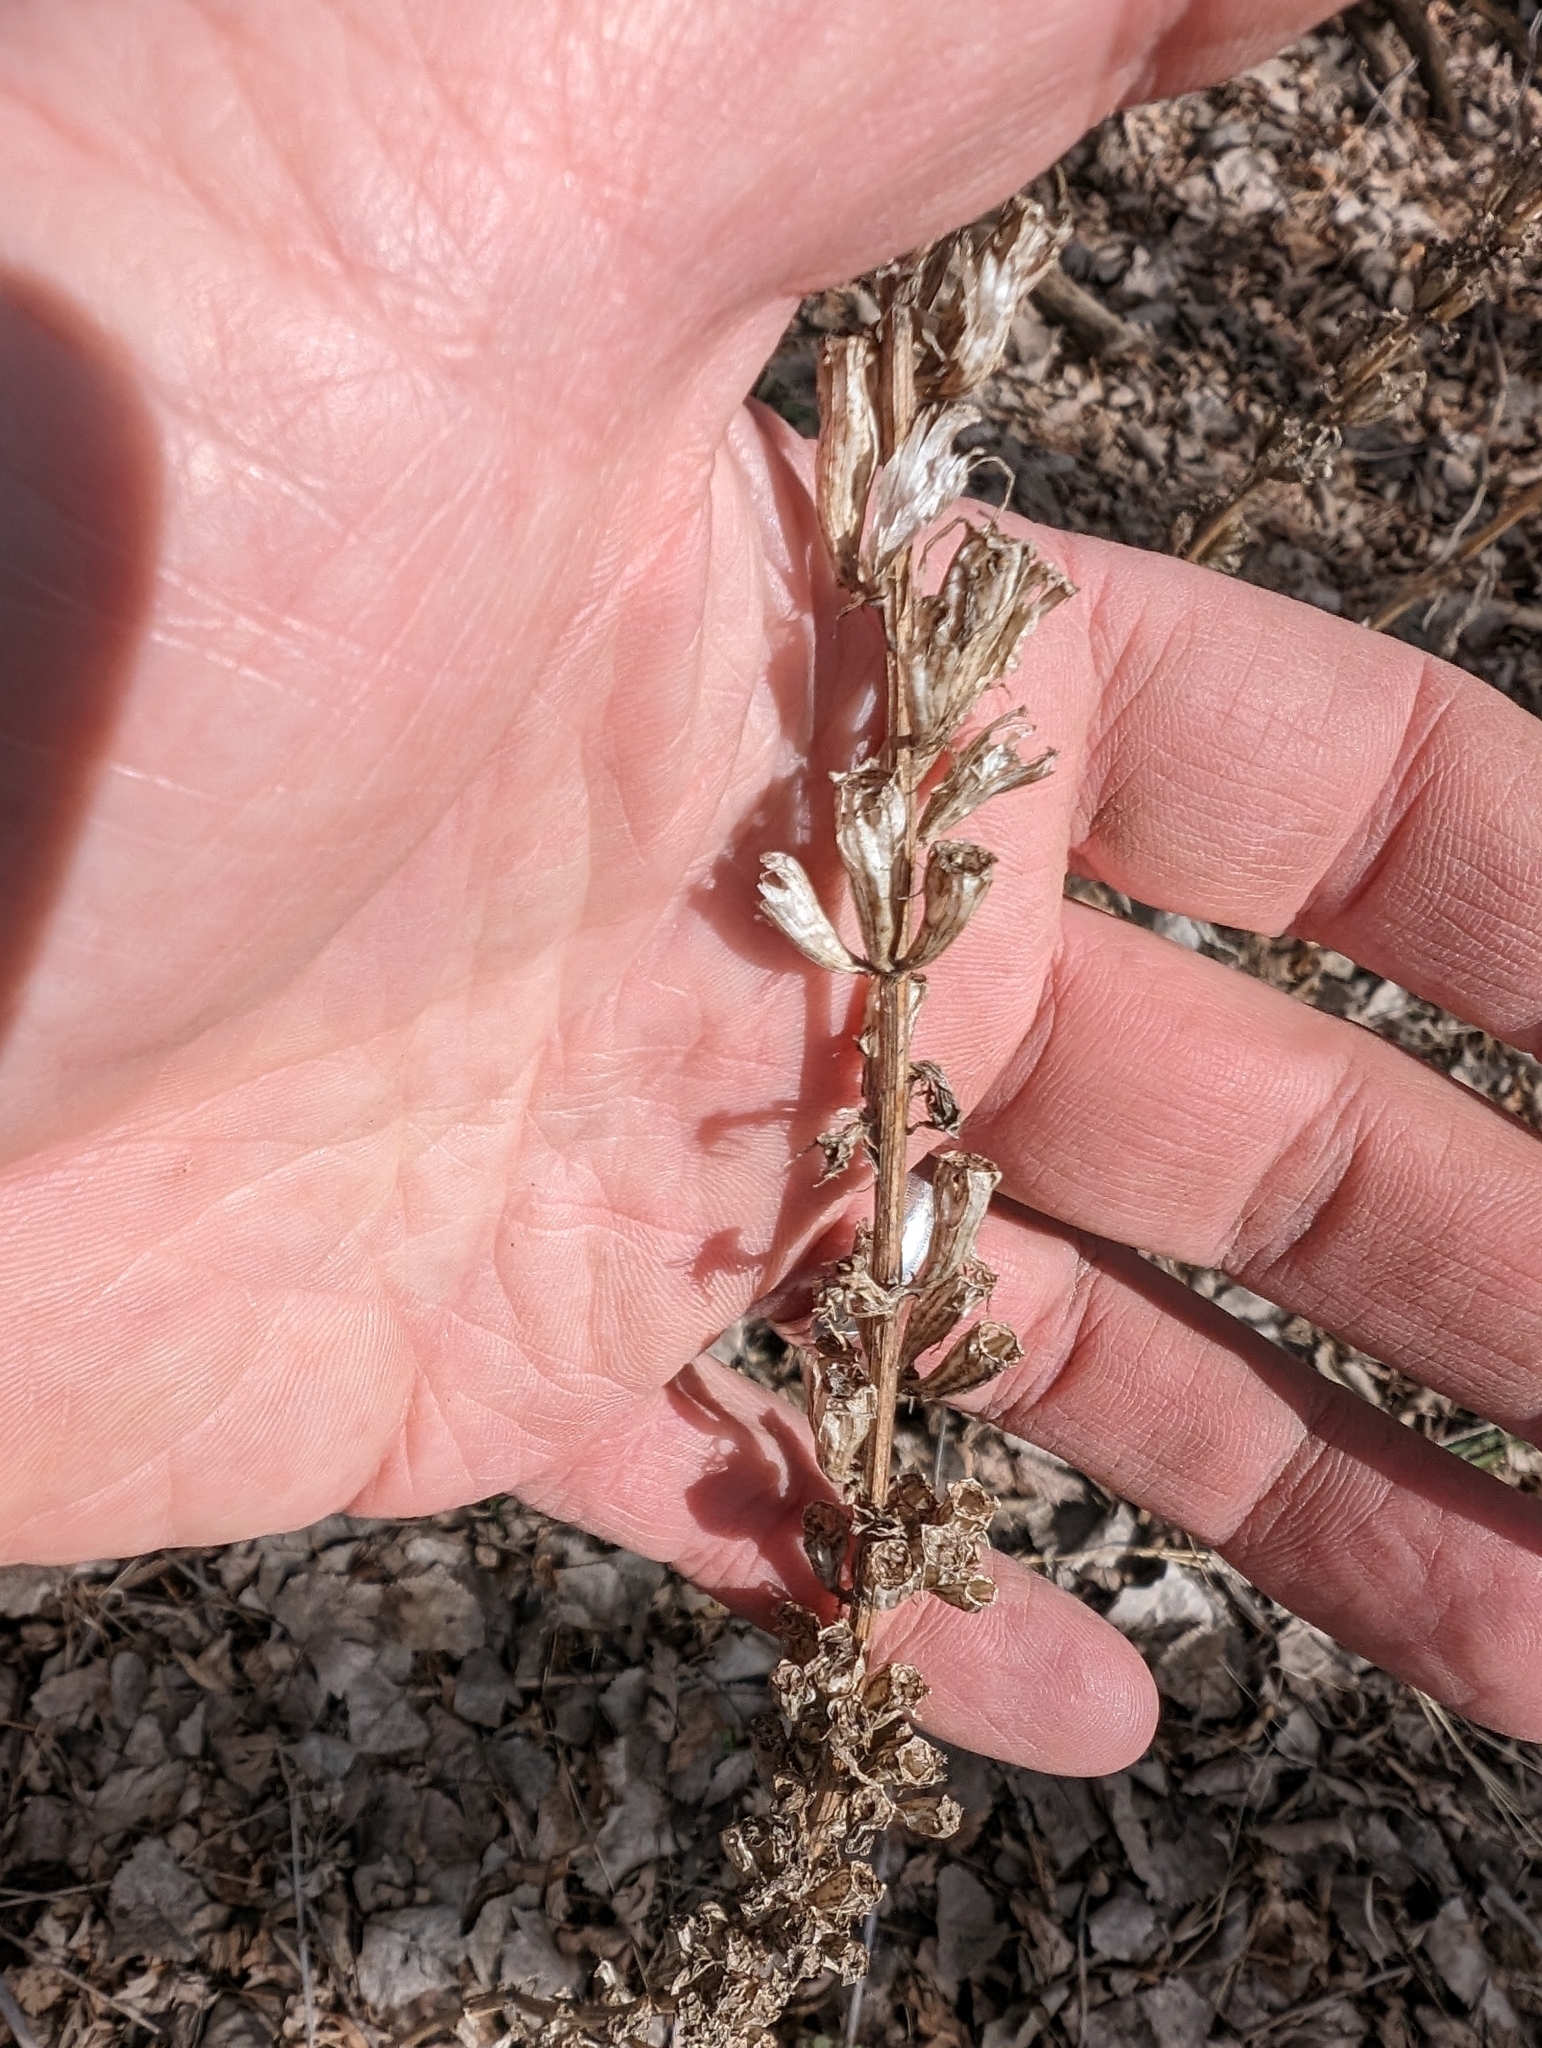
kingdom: Plantae
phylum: Tracheophyta
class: Magnoliopsida
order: Asterales
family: Campanulaceae
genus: Campanulastrum
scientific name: Campanulastrum americanum
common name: American bellflower
